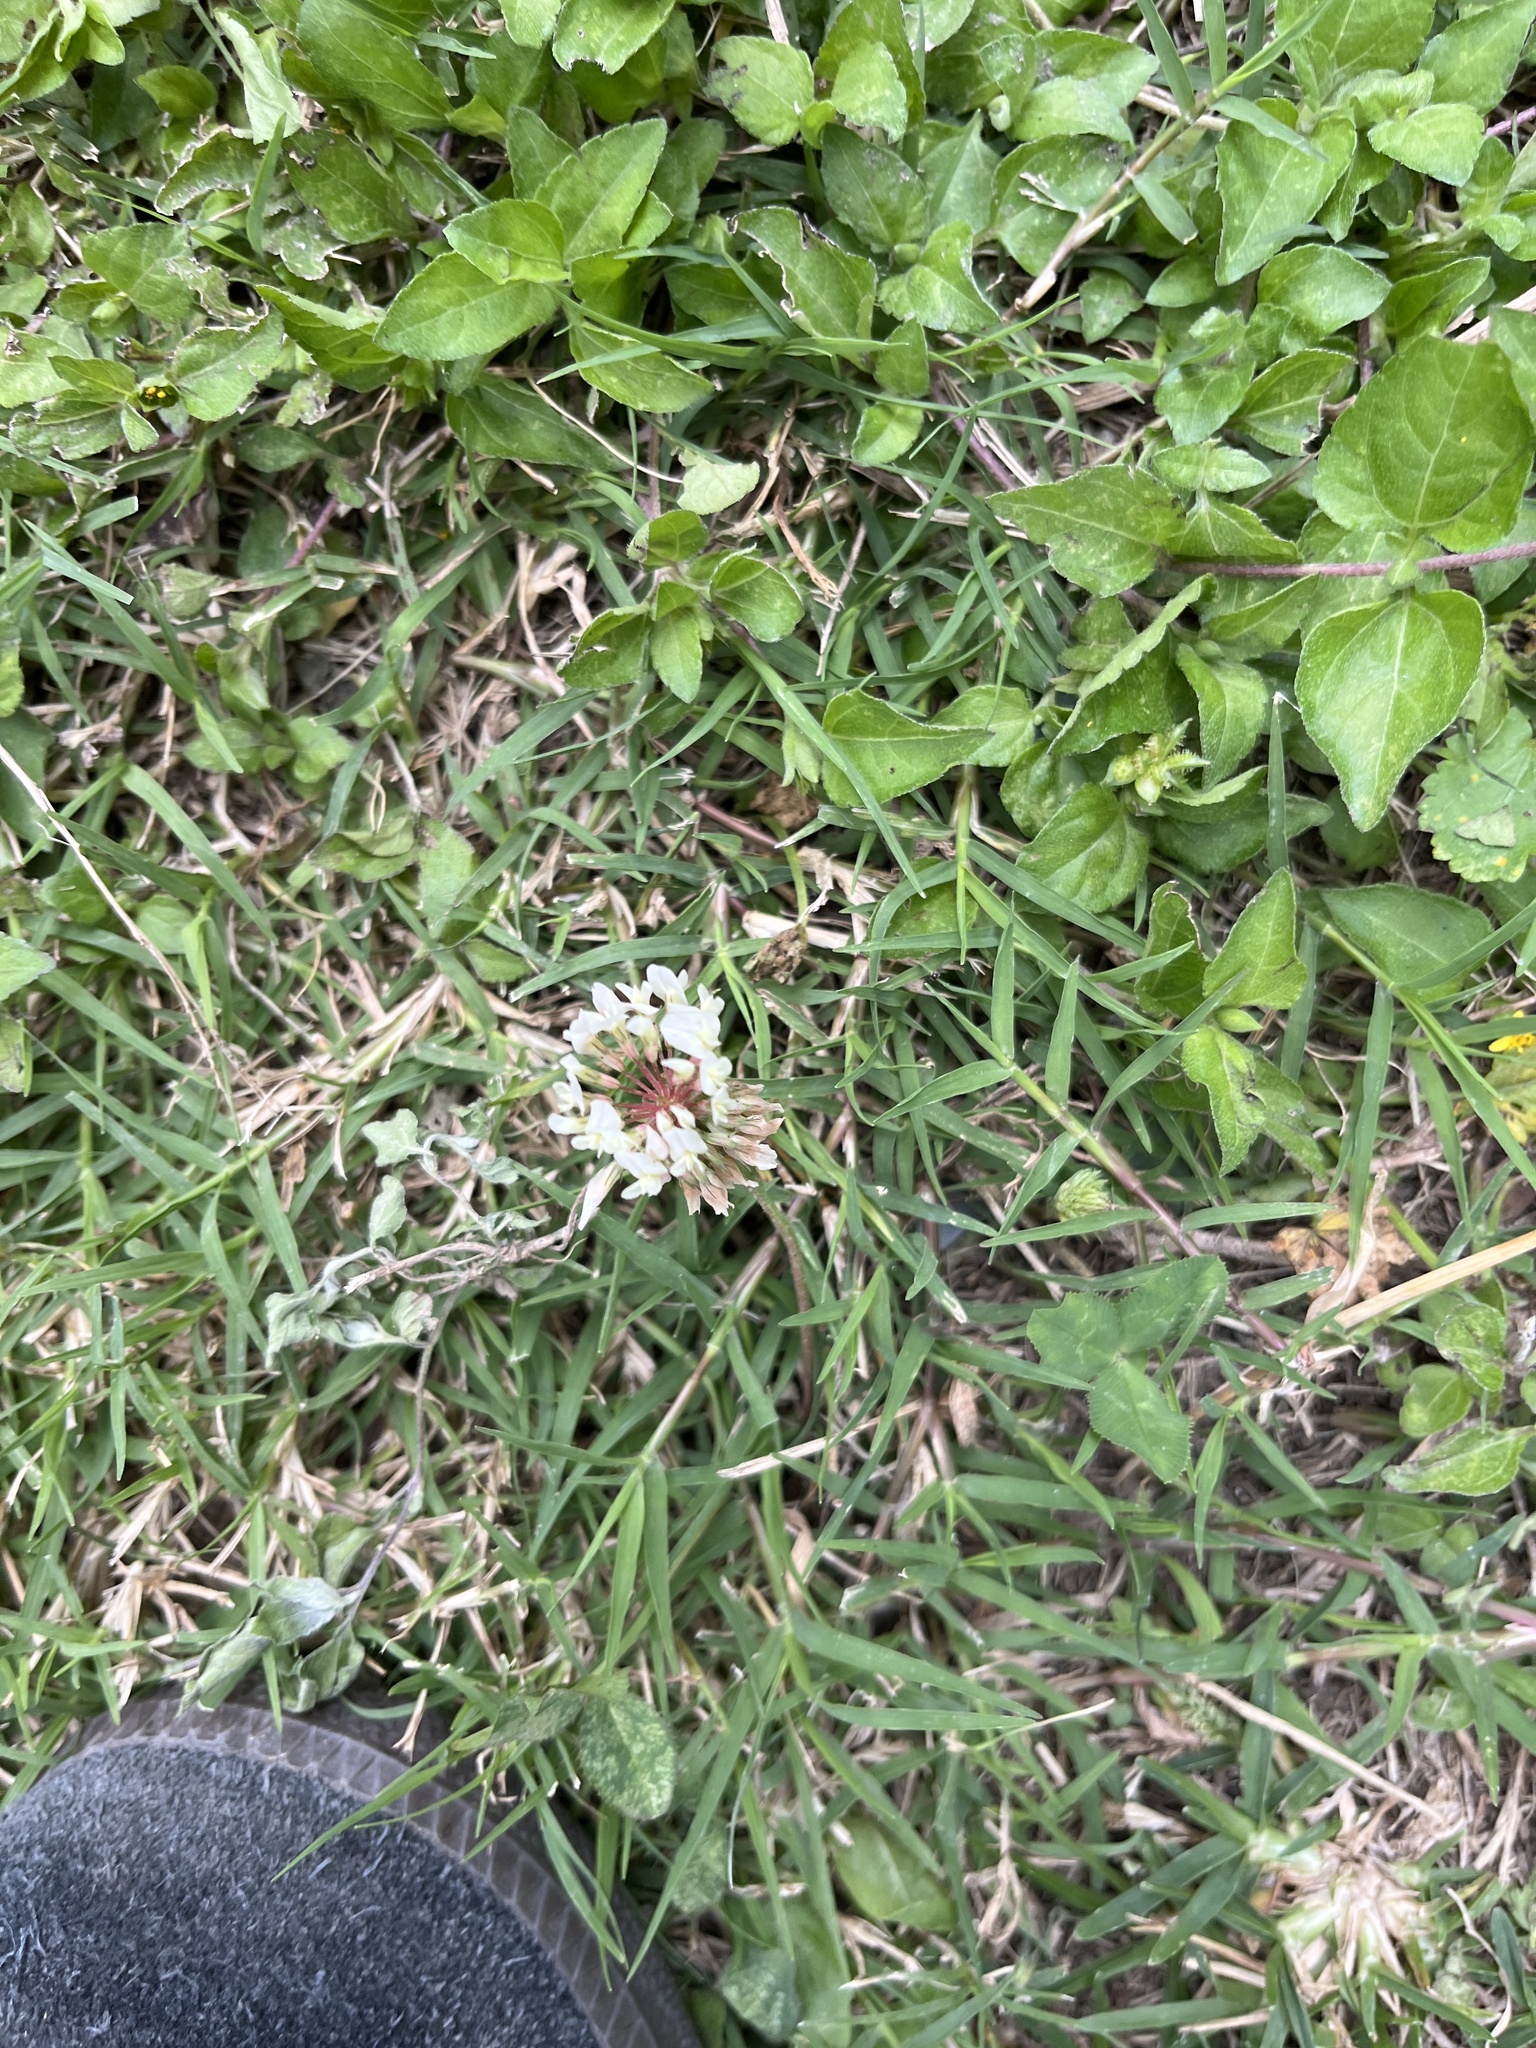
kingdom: Plantae
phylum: Tracheophyta
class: Magnoliopsida
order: Fabales
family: Fabaceae
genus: Trifolium
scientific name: Trifolium repens
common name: White clover
